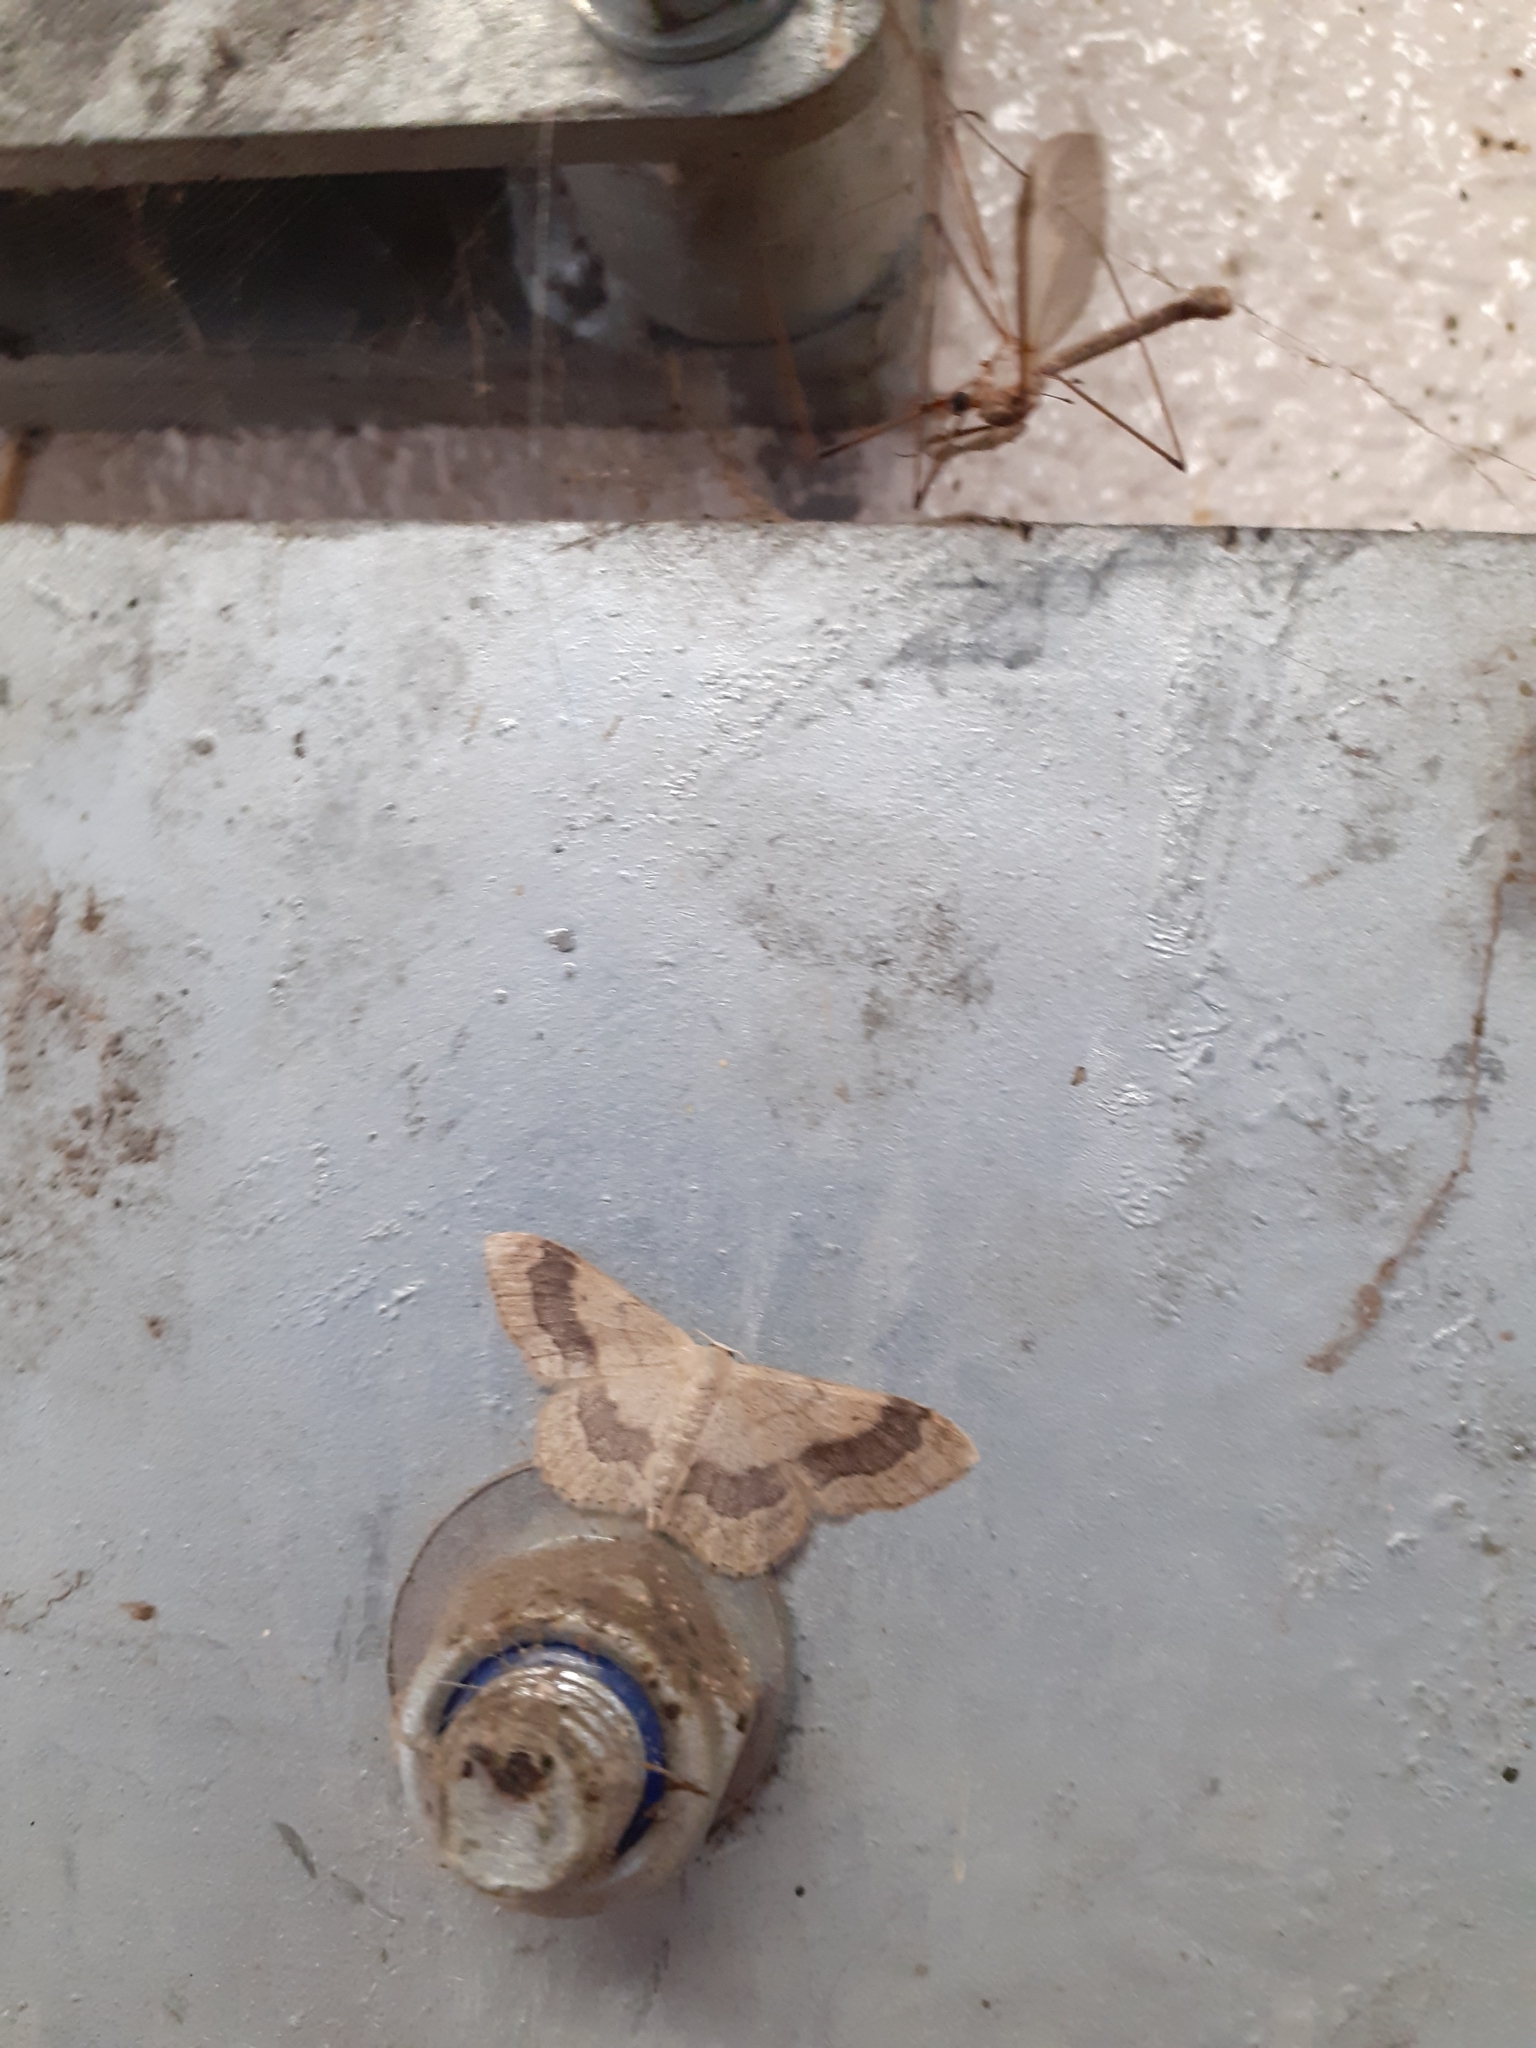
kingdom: Animalia
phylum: Arthropoda
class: Insecta
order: Lepidoptera
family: Geometridae
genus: Idaea
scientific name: Idaea aversata
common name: Riband wave
